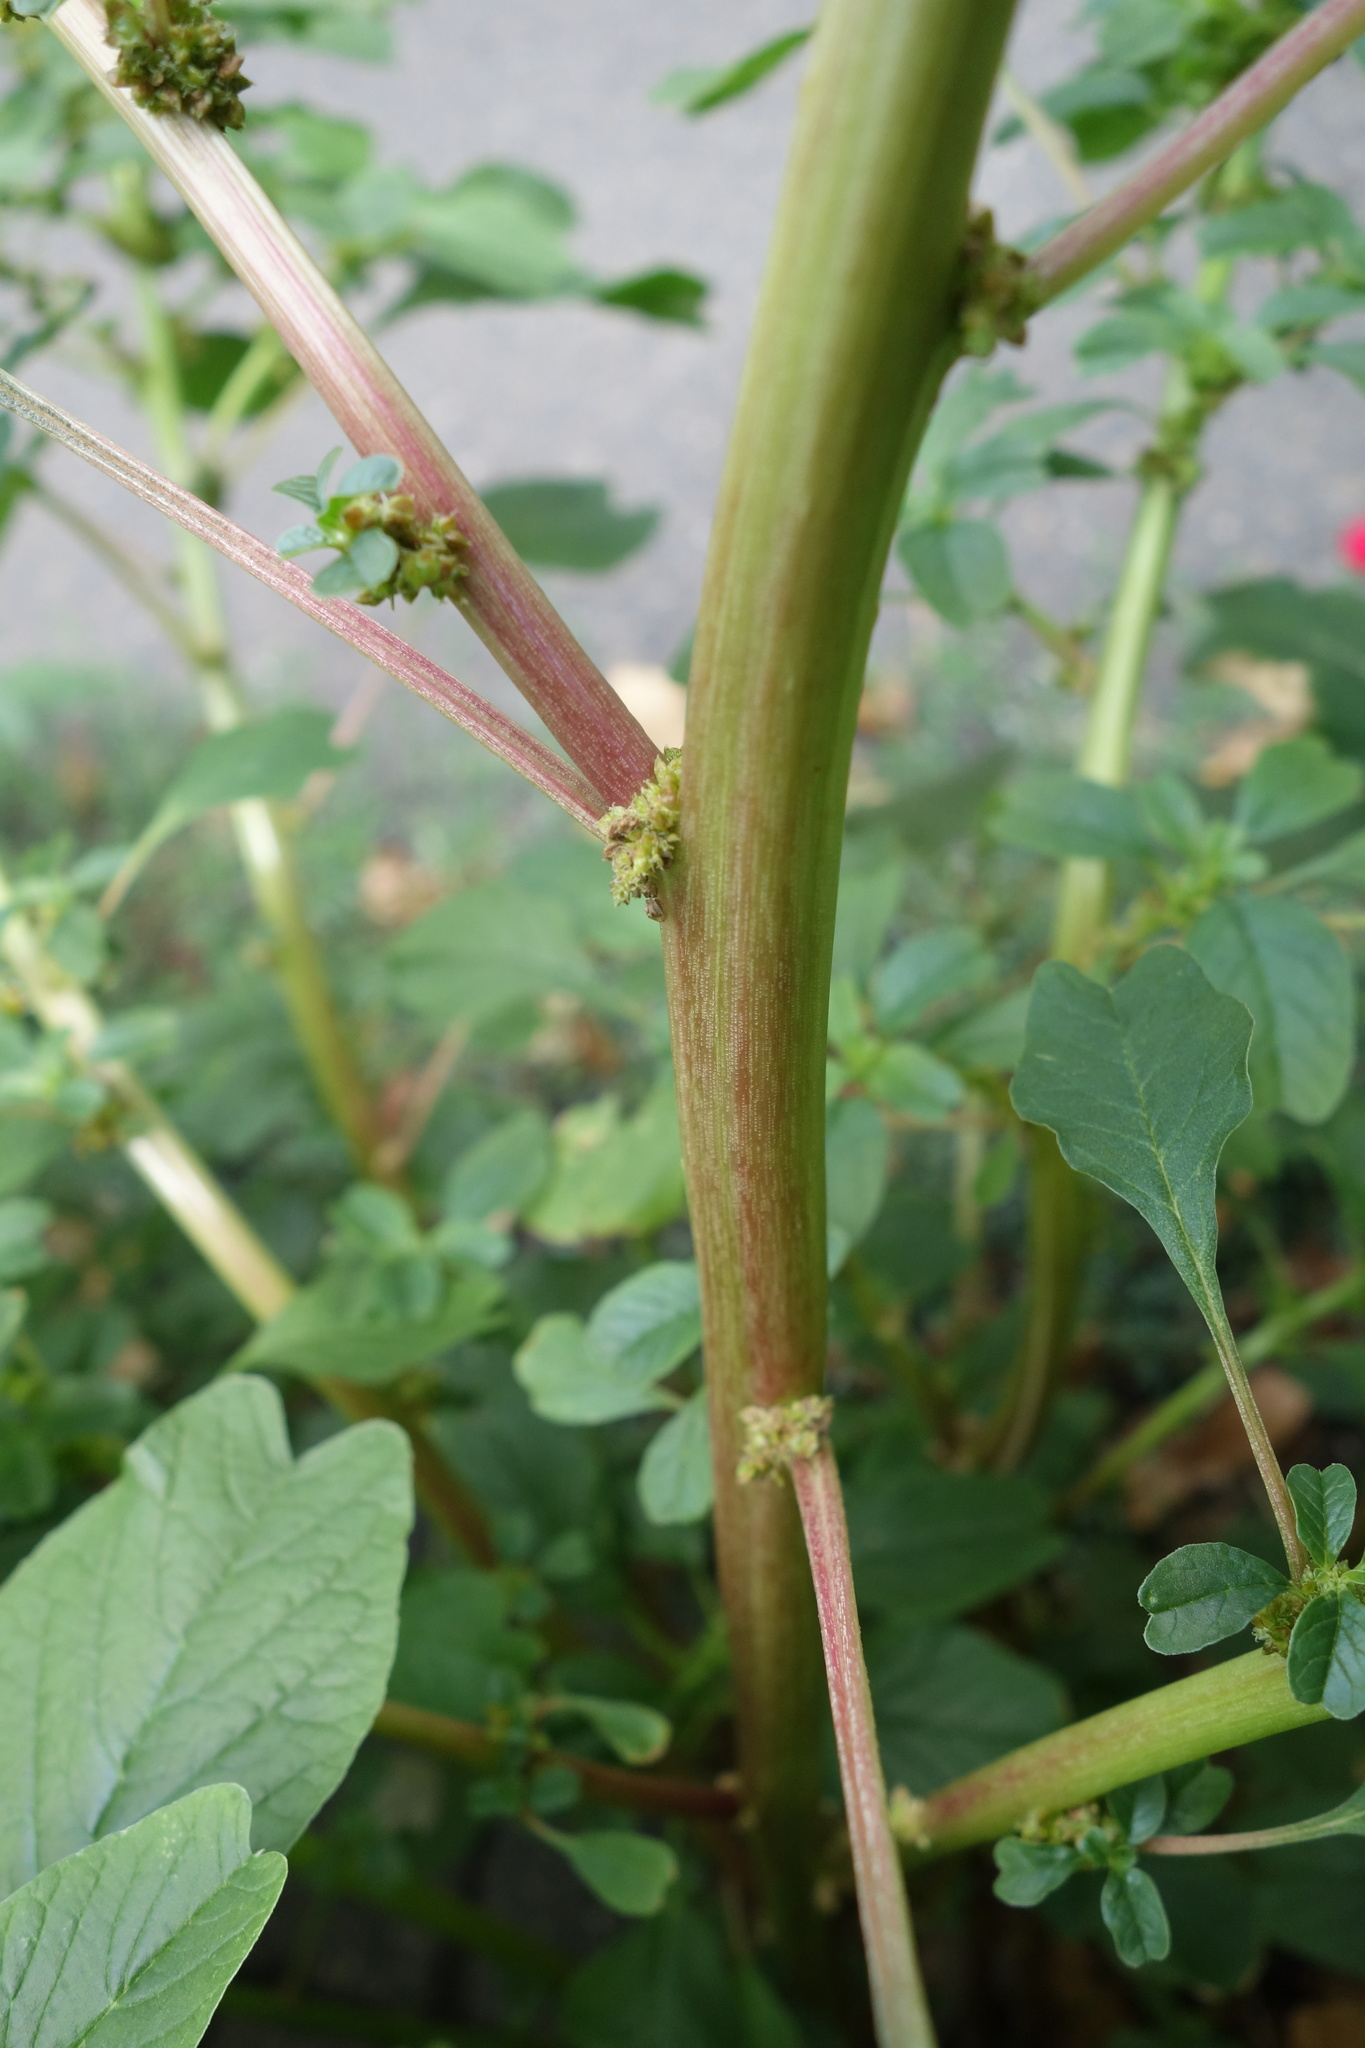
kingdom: Plantae
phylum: Tracheophyta
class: Magnoliopsida
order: Caryophyllales
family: Amaranthaceae
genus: Amaranthus
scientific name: Amaranthus blitum
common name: Purple amaranth
